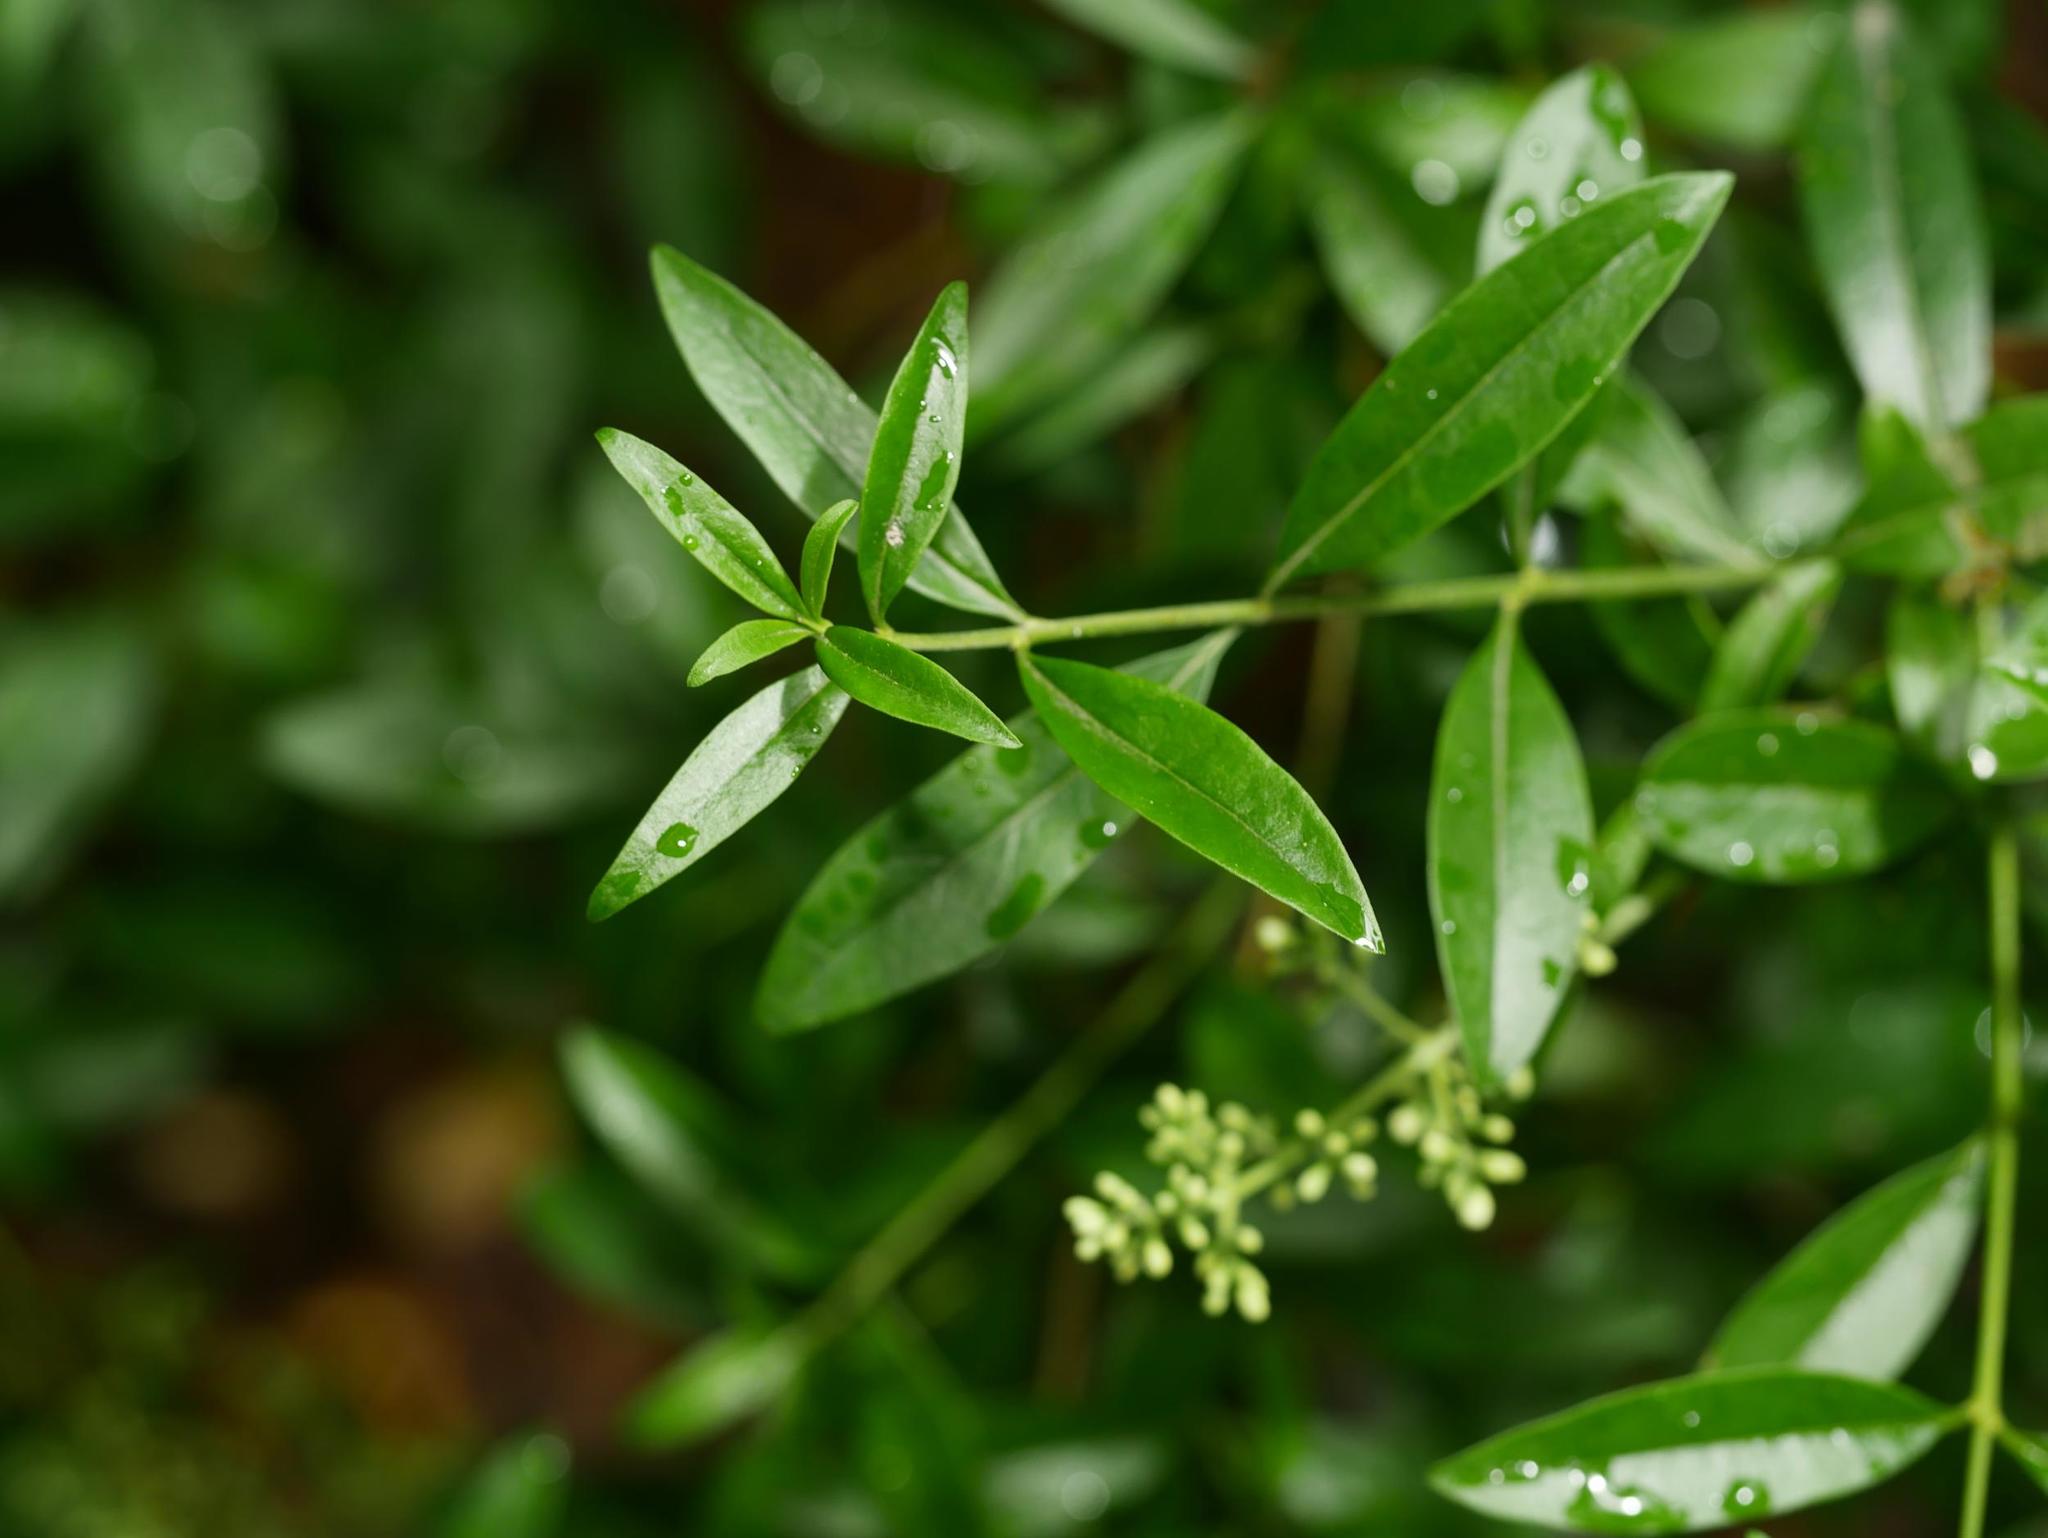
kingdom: Plantae
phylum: Tracheophyta
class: Magnoliopsida
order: Lamiales
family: Oleaceae
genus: Ligustrum
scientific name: Ligustrum vulgare
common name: Wild privet
